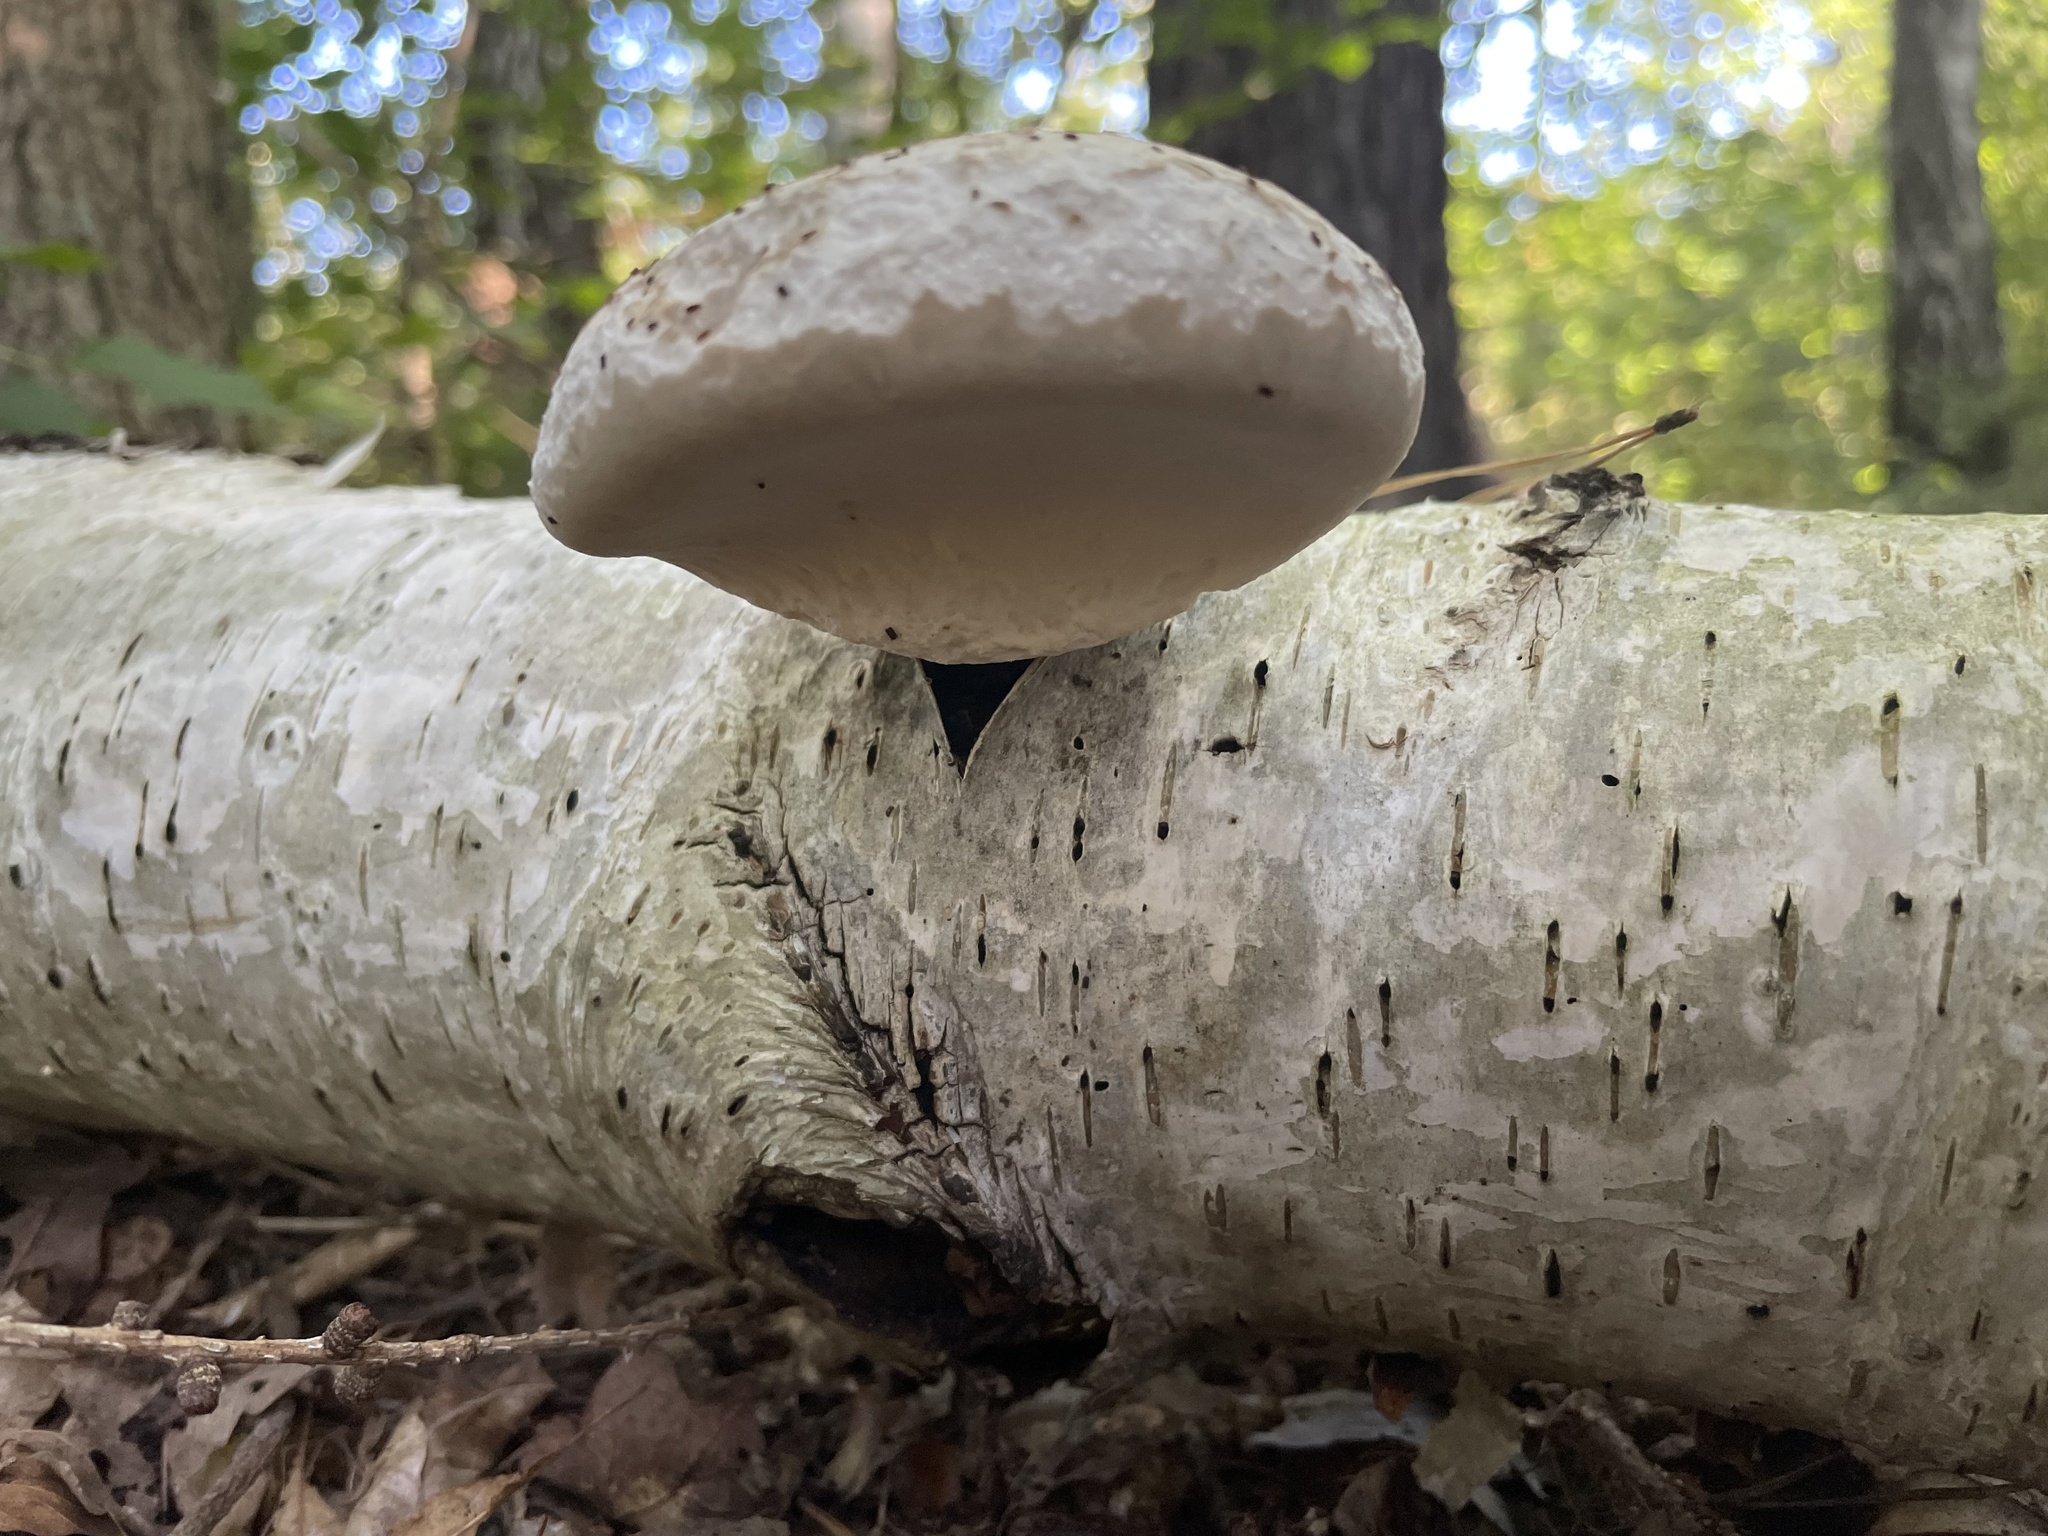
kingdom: Fungi
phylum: Basidiomycota
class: Agaricomycetes
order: Polyporales
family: Fomitopsidaceae
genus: Fomitopsis
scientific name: Fomitopsis betulina
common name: Birch polypore
